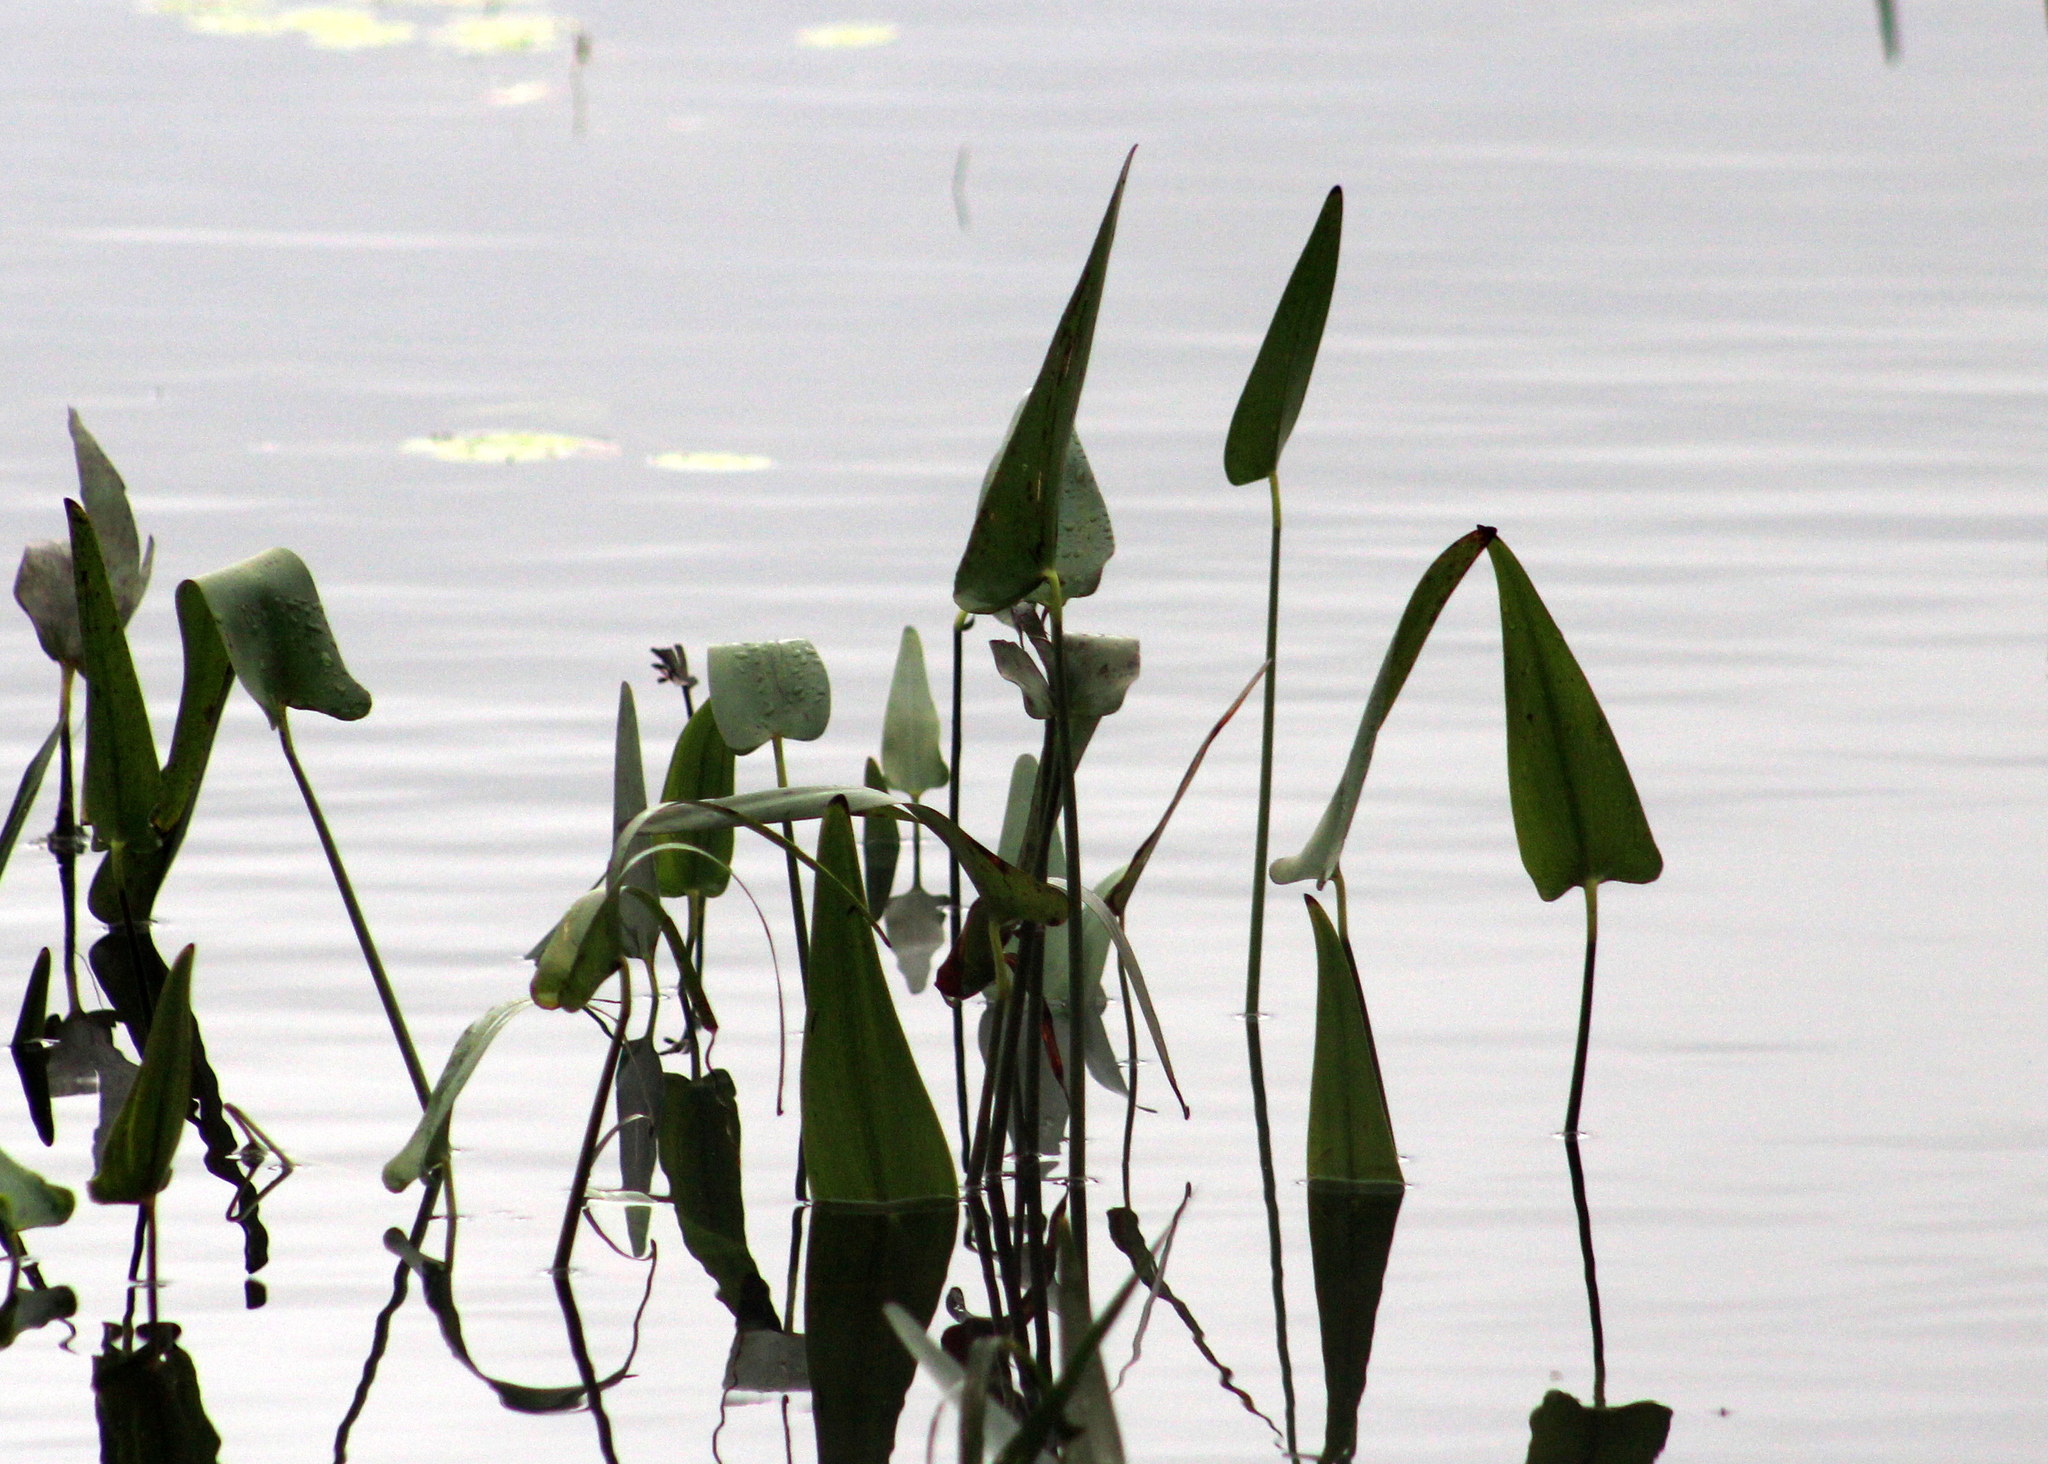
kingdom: Plantae
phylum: Tracheophyta
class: Liliopsida
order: Commelinales
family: Pontederiaceae
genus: Pontederia
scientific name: Pontederia cordata
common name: Pickerelweed
